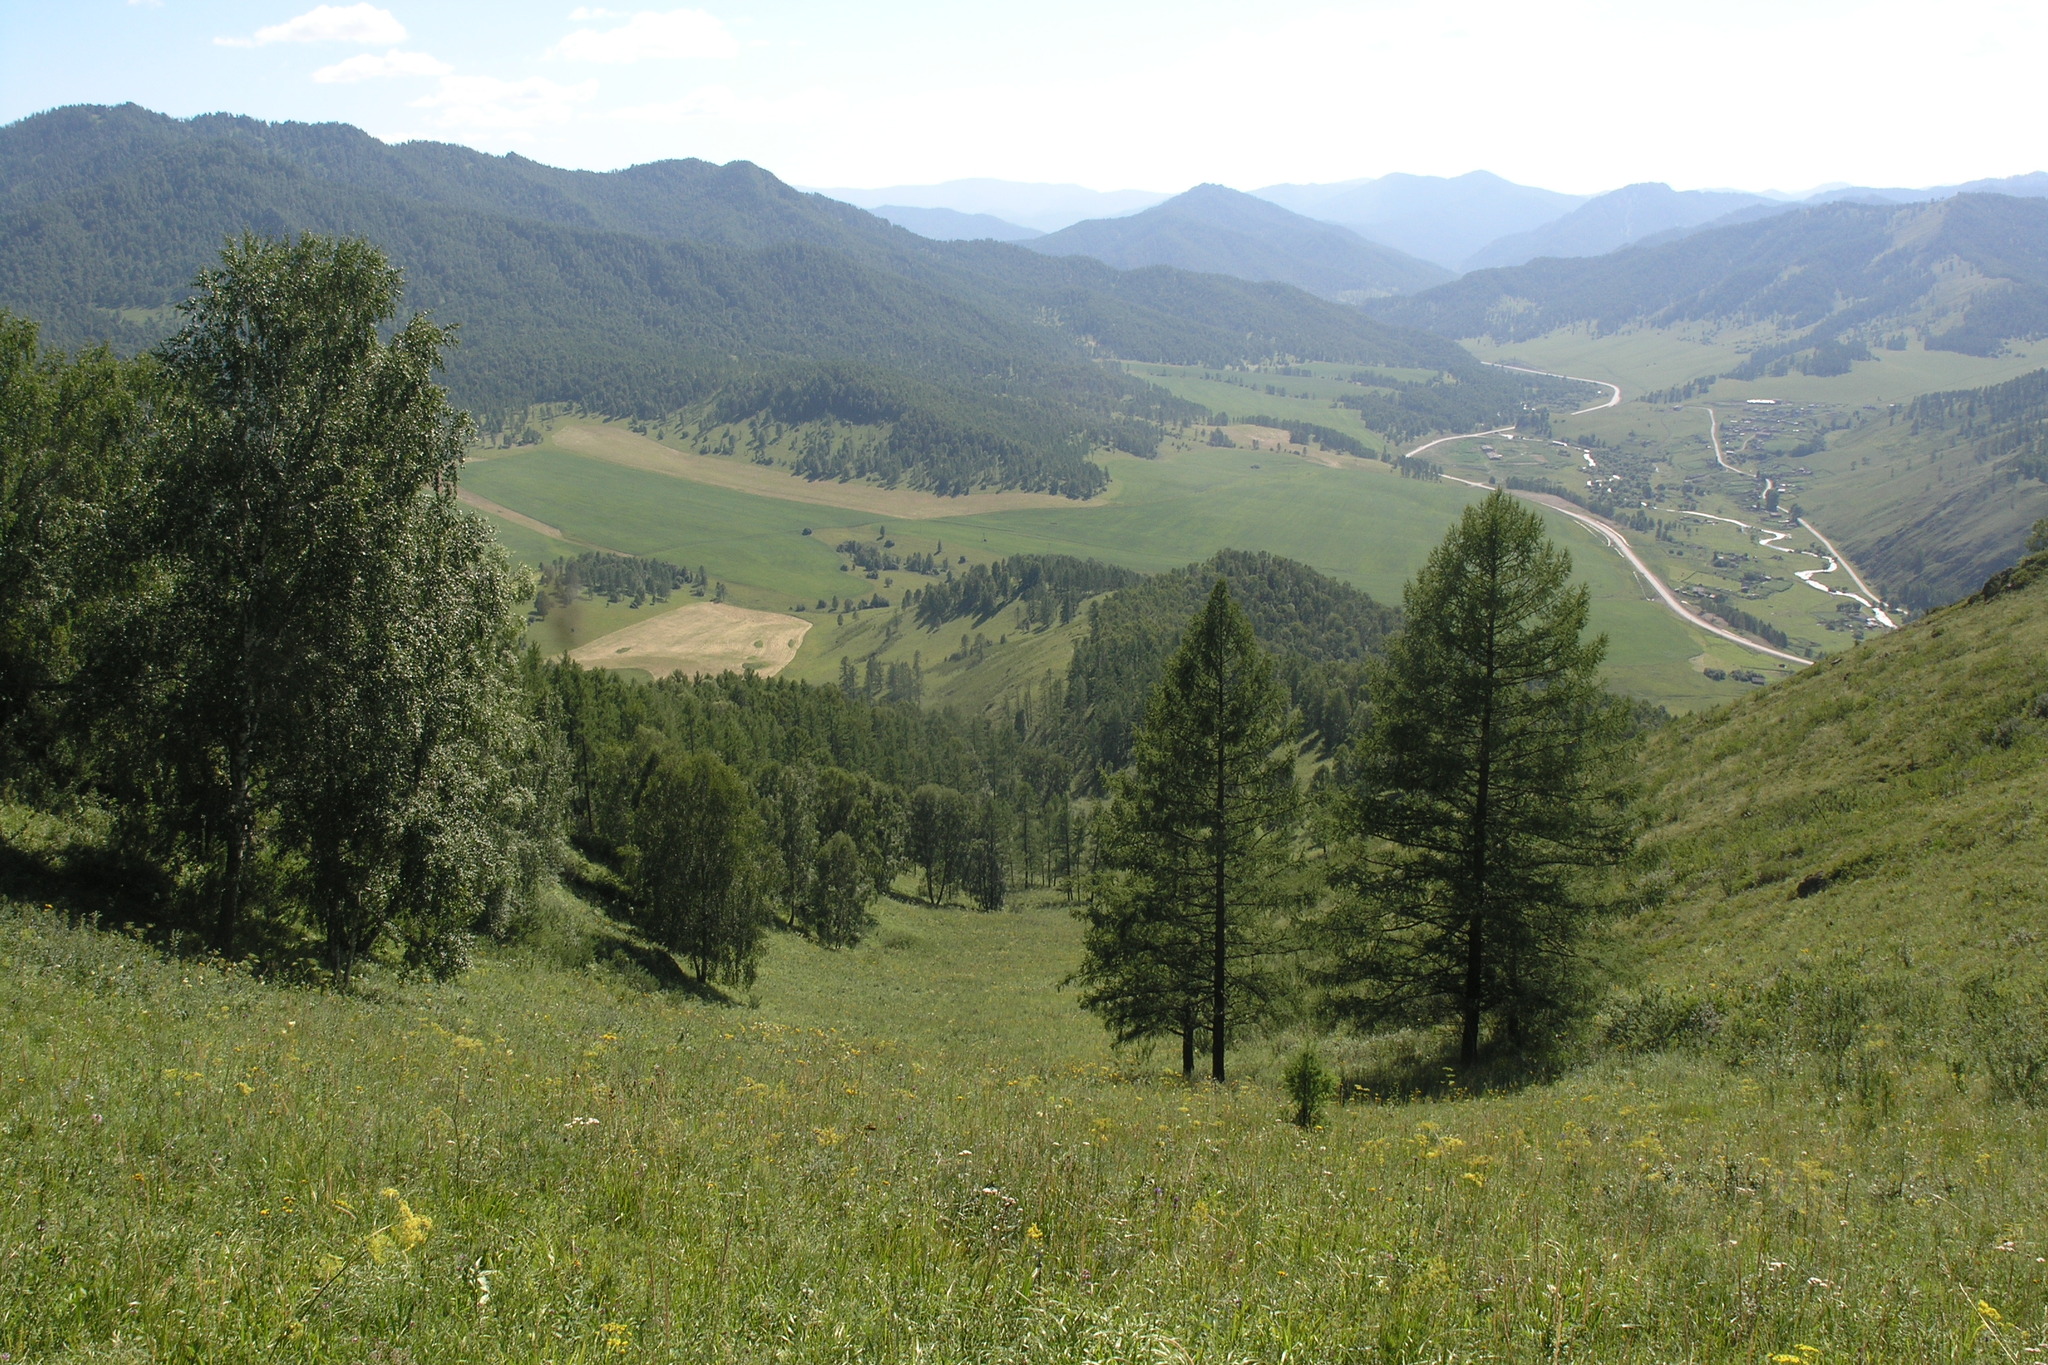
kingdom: Plantae
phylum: Tracheophyta
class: Magnoliopsida
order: Fagales
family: Betulaceae
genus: Betula
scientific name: Betula pendula
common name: Silver birch
